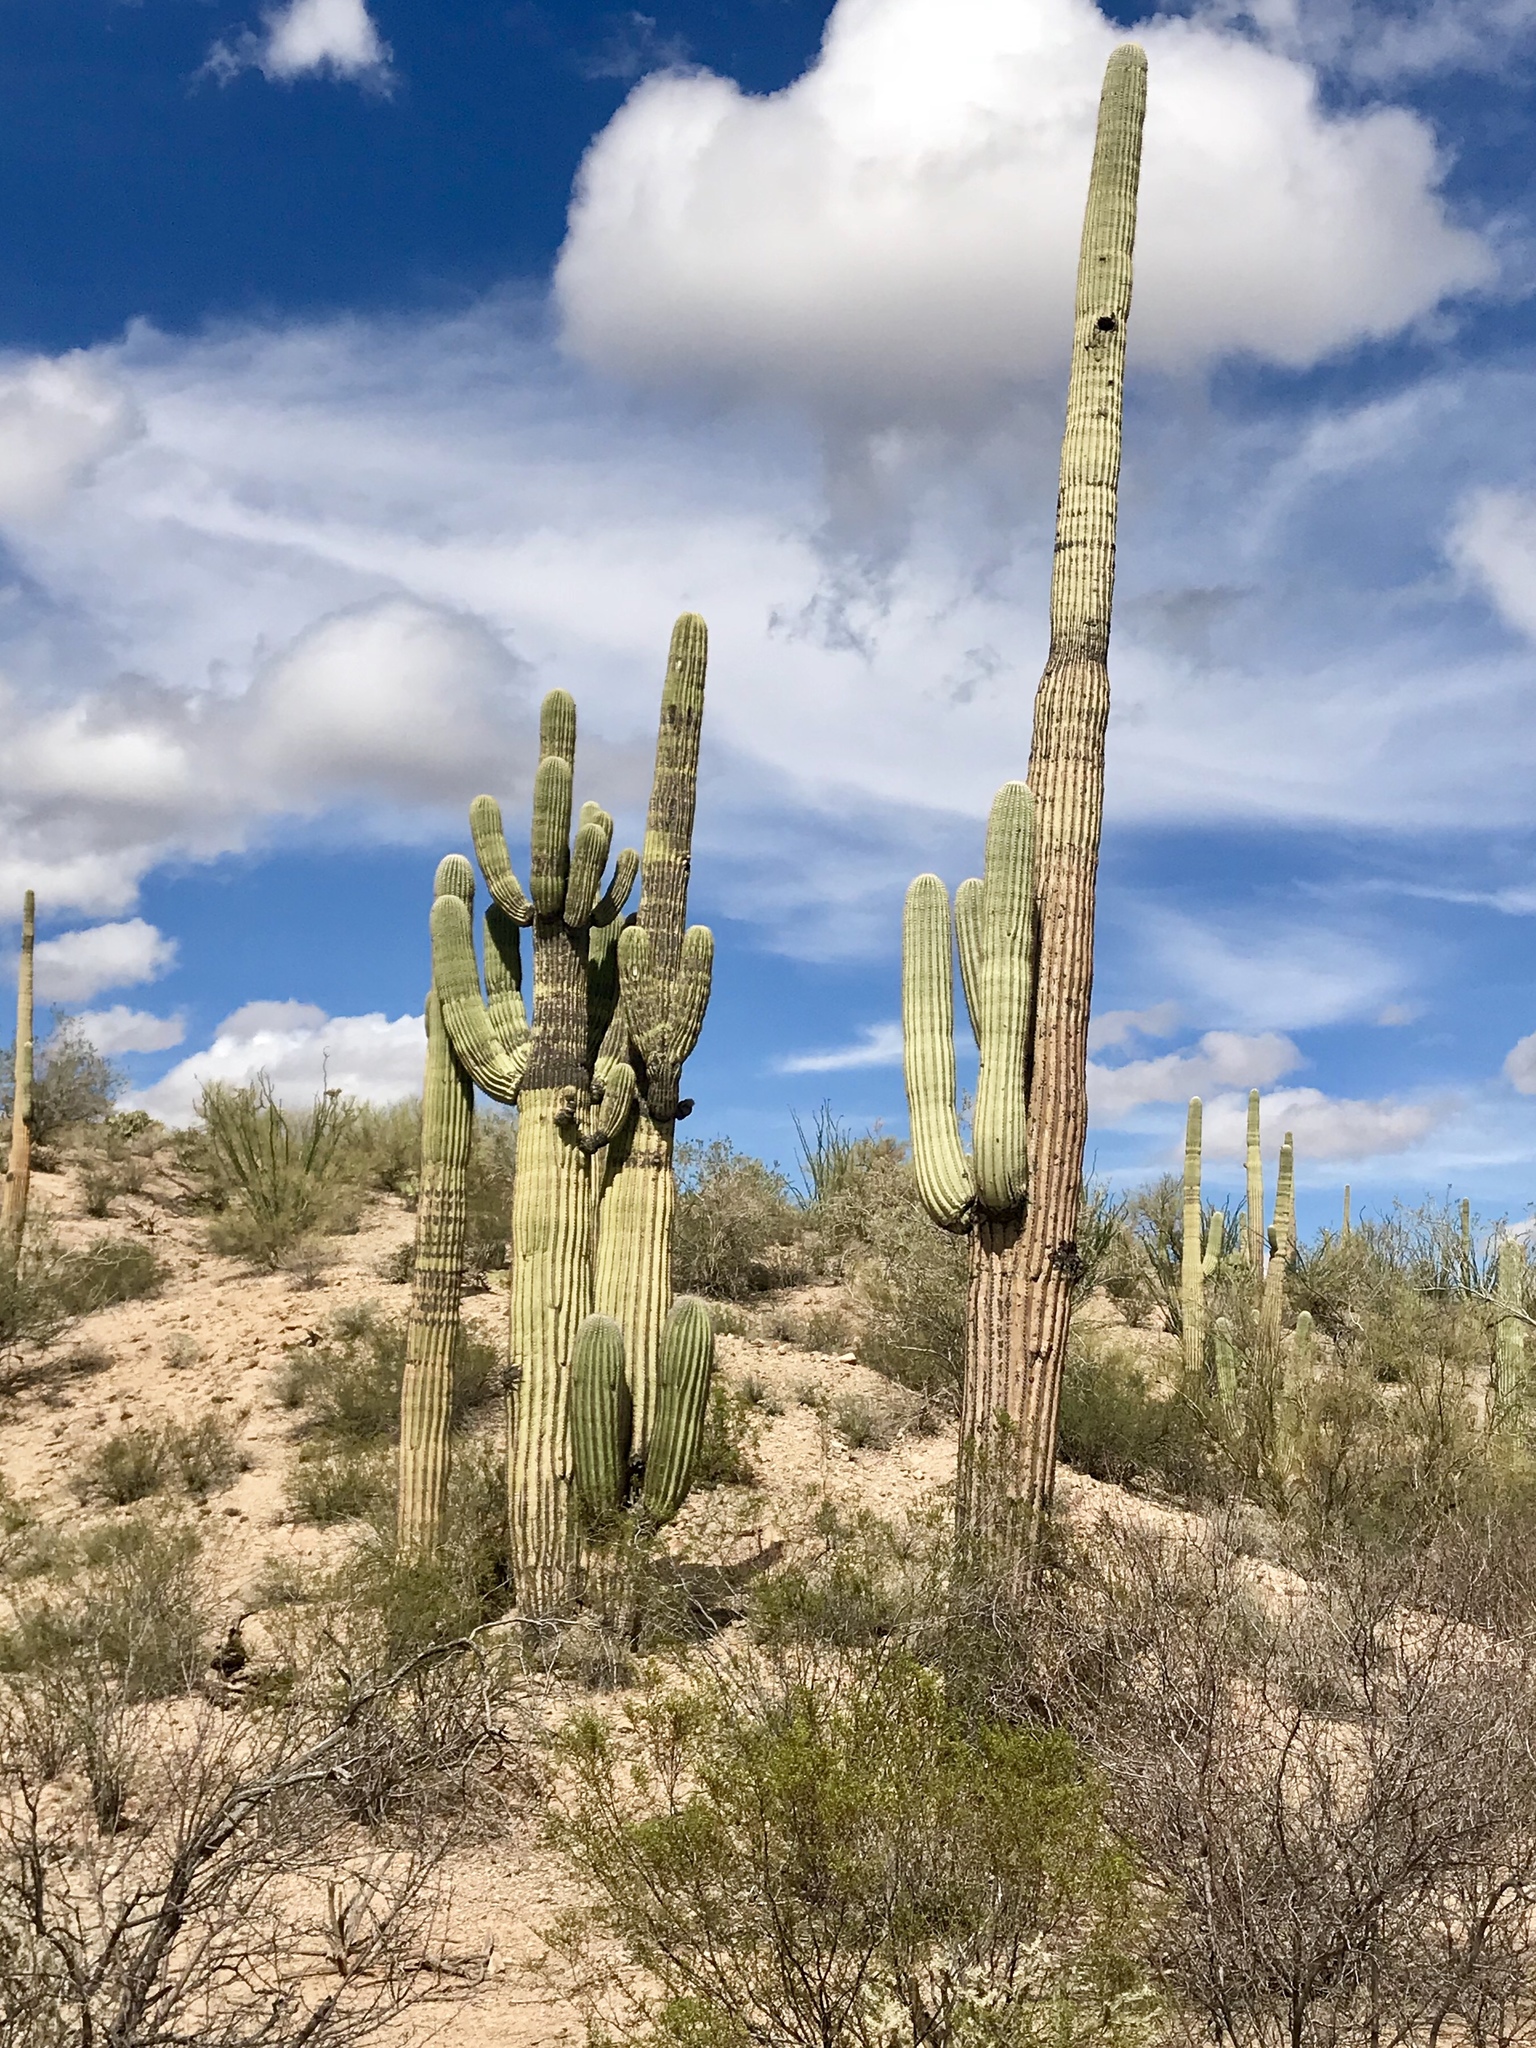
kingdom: Plantae
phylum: Tracheophyta
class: Magnoliopsida
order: Caryophyllales
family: Cactaceae
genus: Carnegiea
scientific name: Carnegiea gigantea
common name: Saguaro
